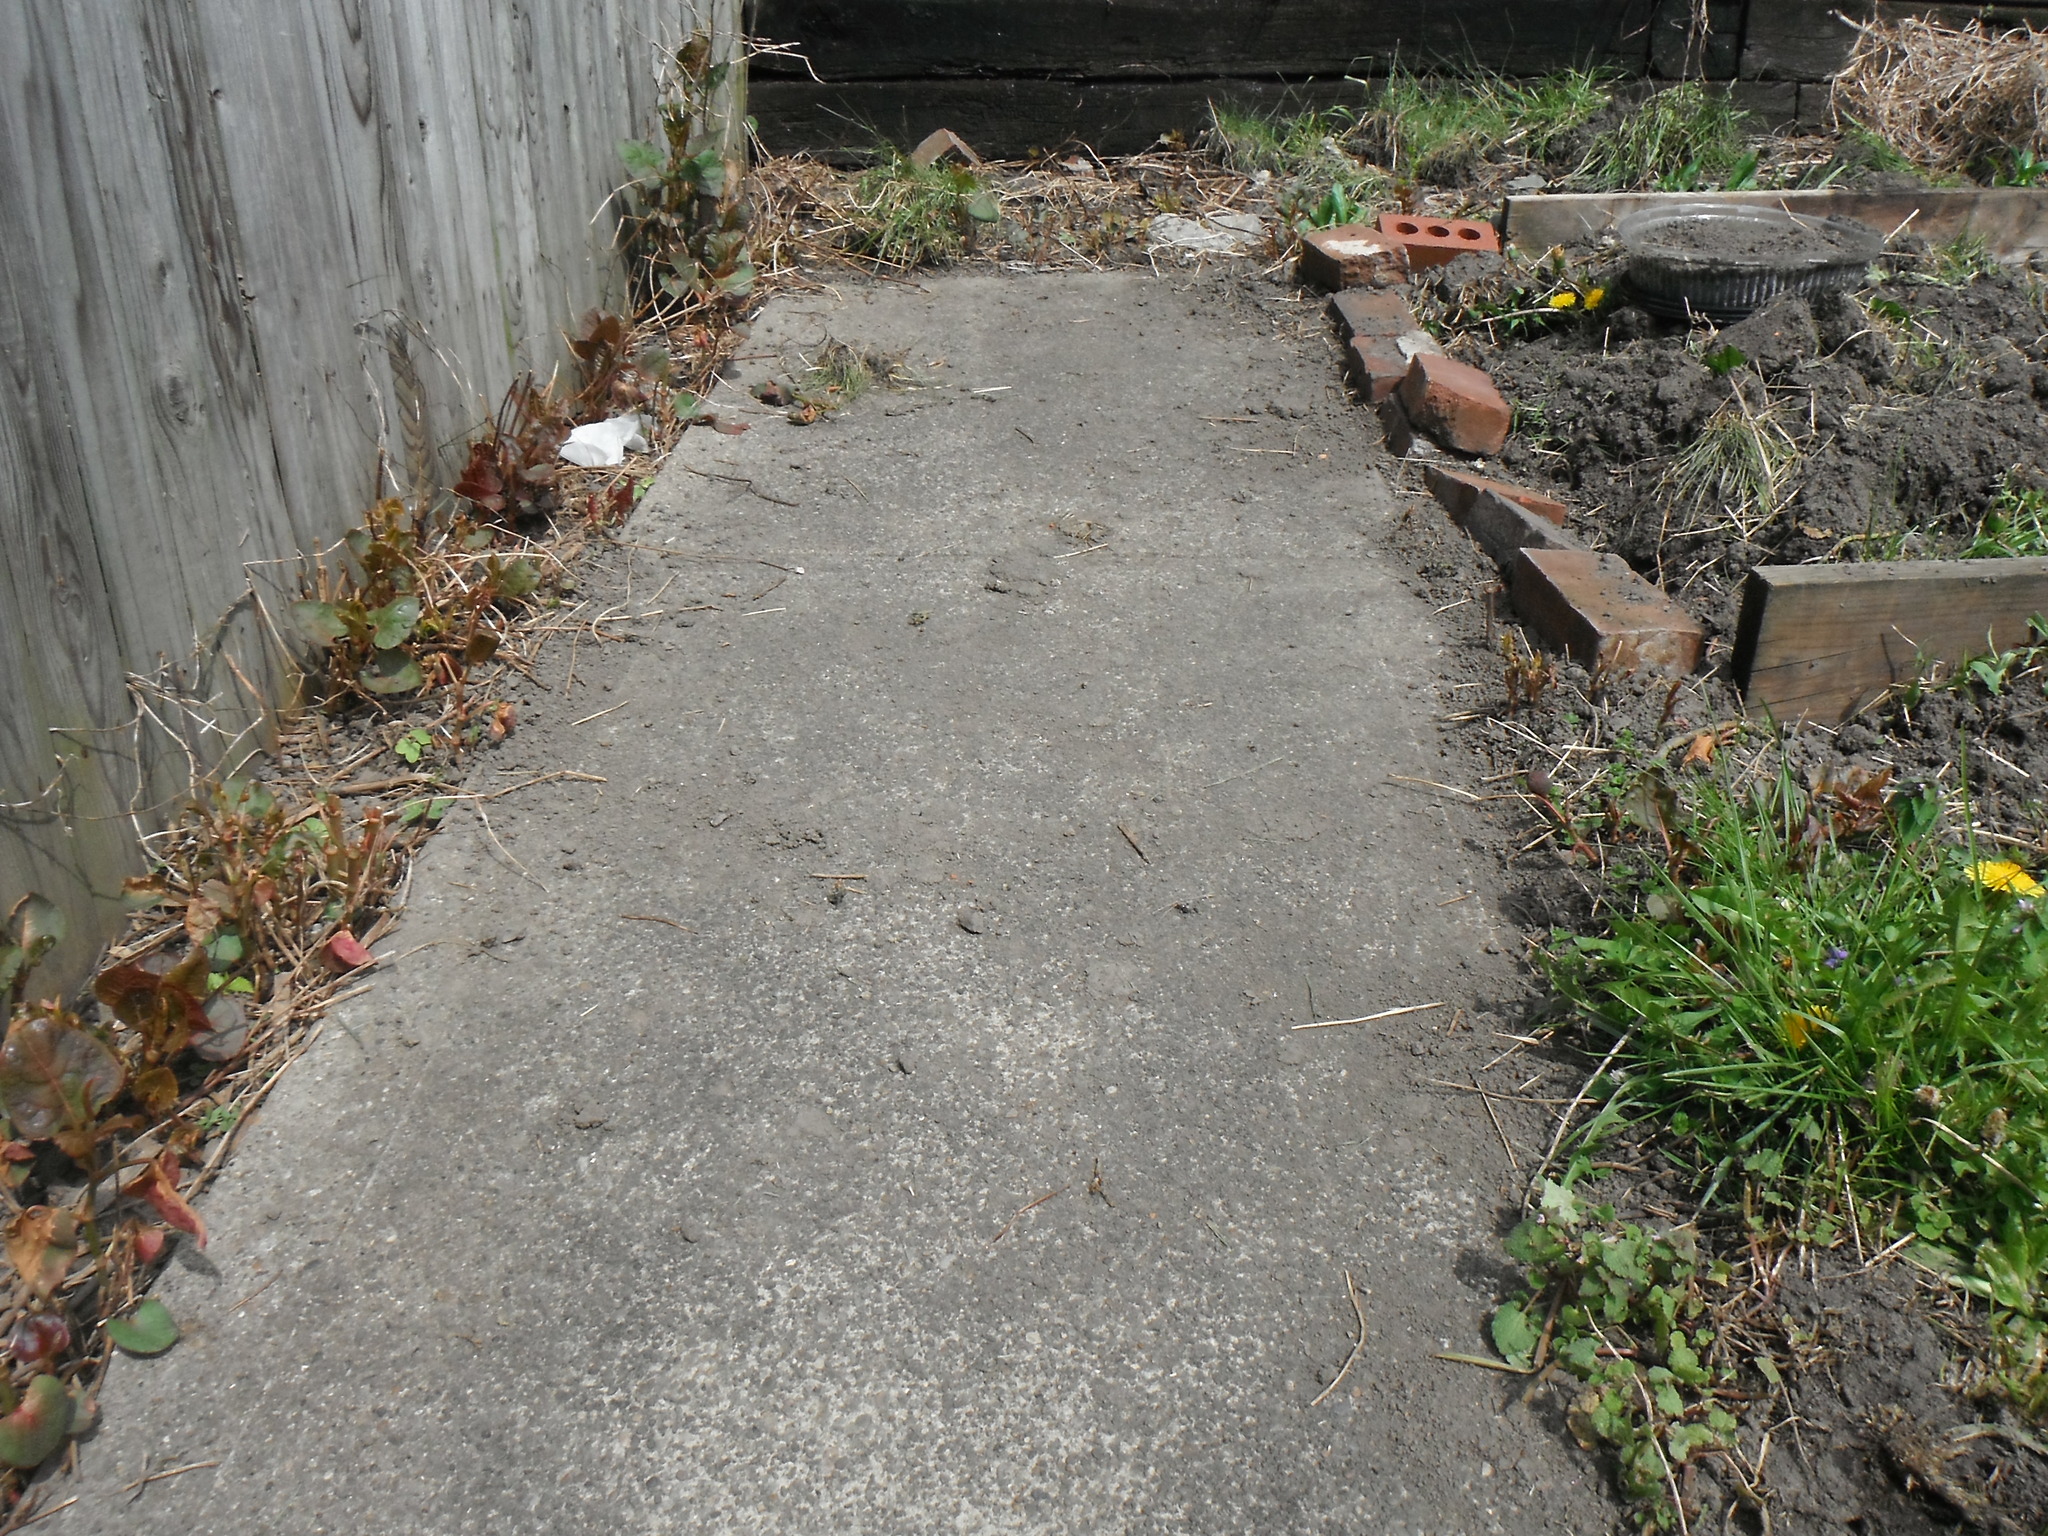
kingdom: Plantae
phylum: Tracheophyta
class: Magnoliopsida
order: Caryophyllales
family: Polygonaceae
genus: Reynoutria
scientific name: Reynoutria japonica
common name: Japanese knotweed
